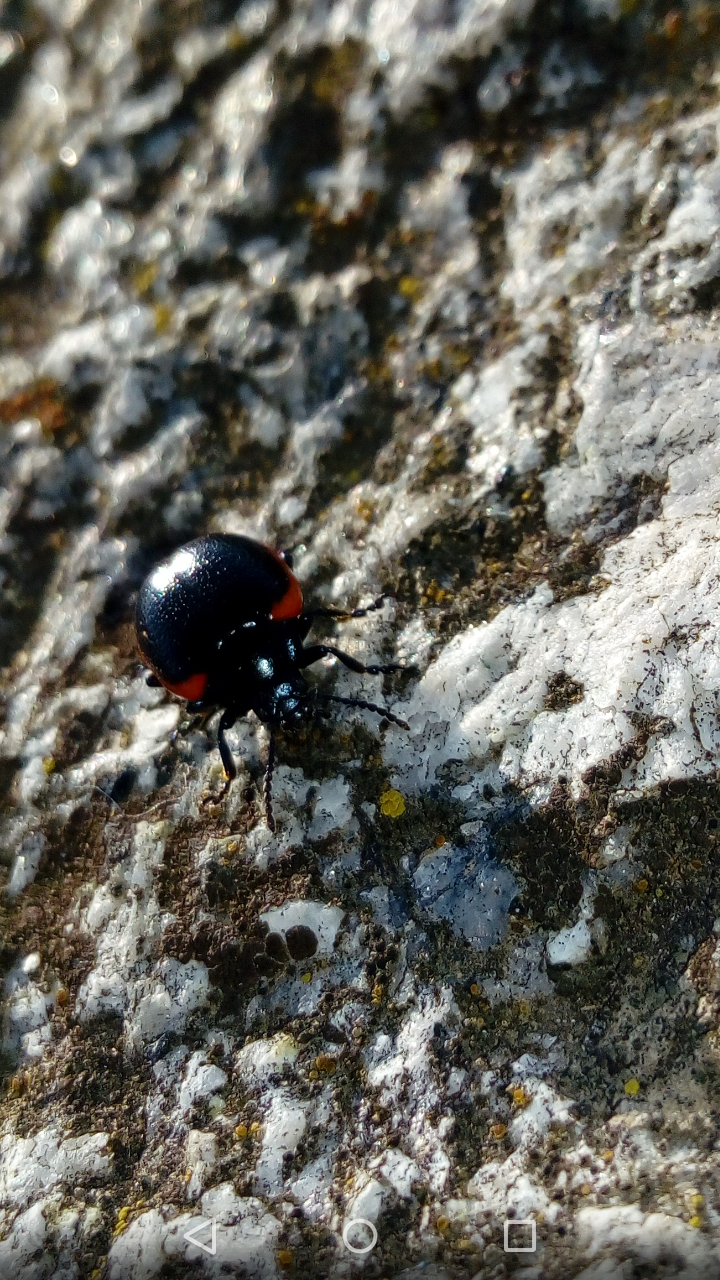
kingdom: Animalia
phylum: Arthropoda
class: Insecta
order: Coleoptera
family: Chrysomelidae
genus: Chrysolina
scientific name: Chrysolina rossia
